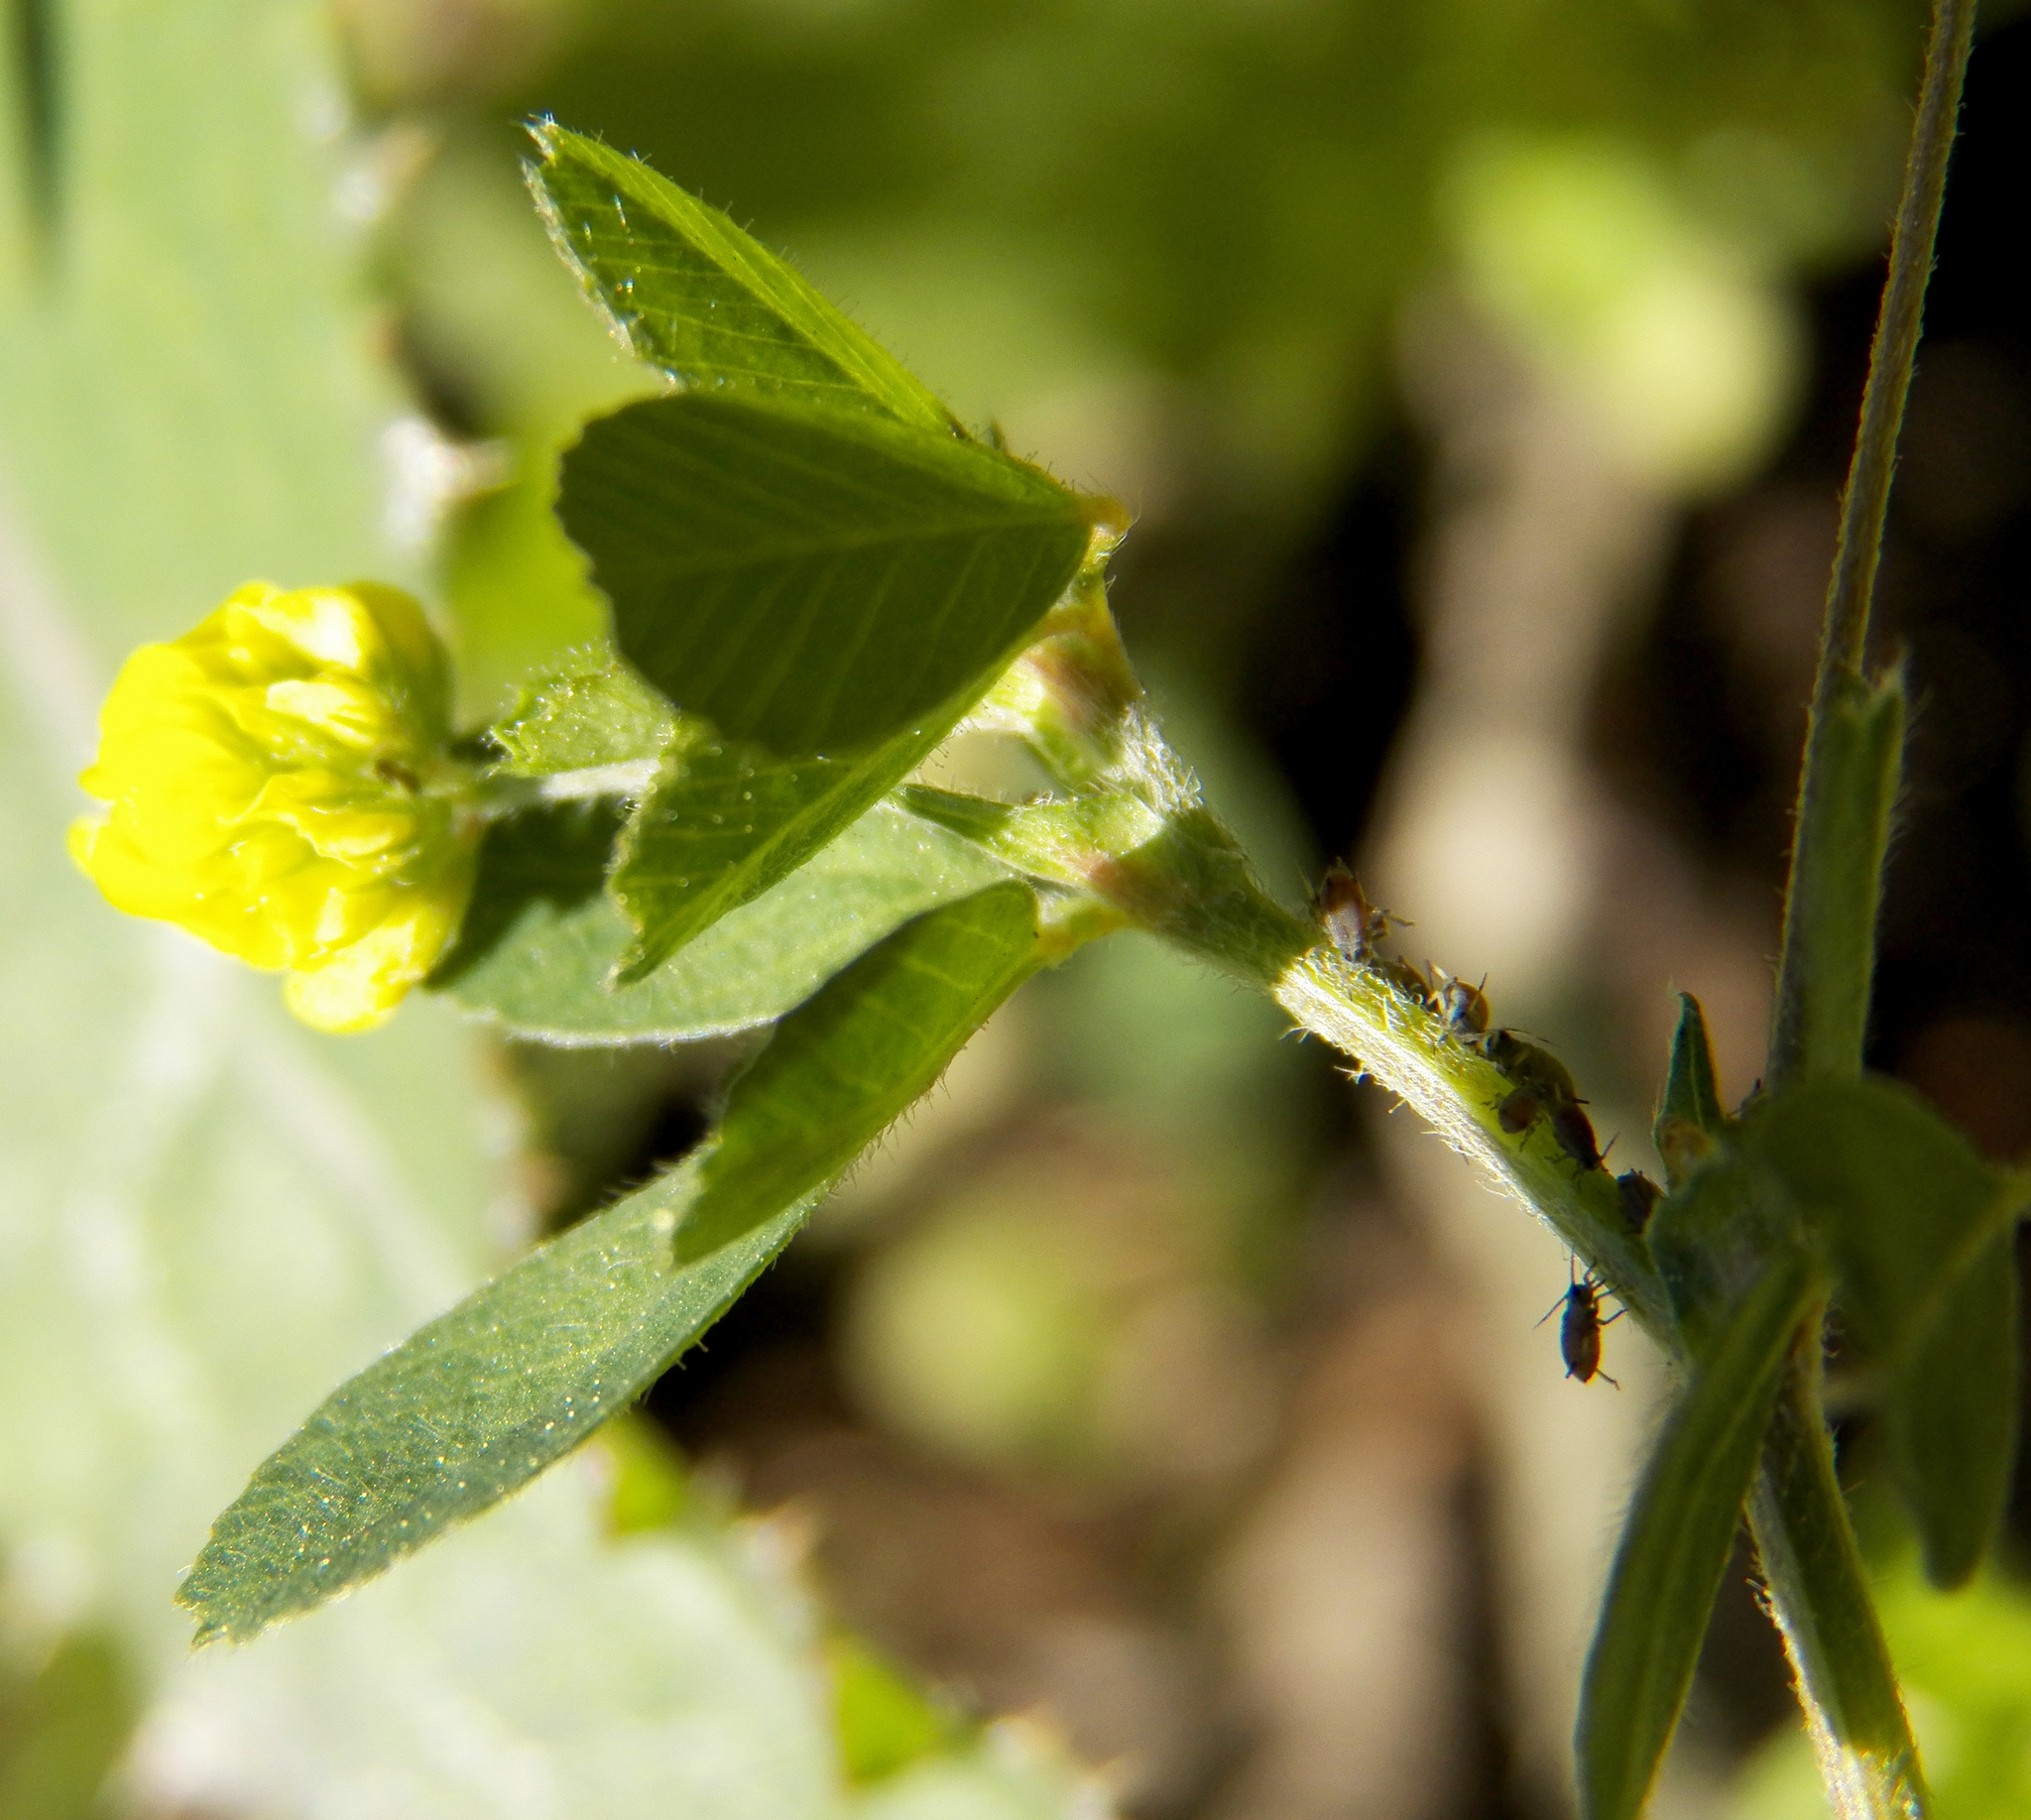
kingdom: Plantae
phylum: Tracheophyta
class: Magnoliopsida
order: Fabales
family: Fabaceae
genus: Medicago
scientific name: Medicago lupulina
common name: Black medick
